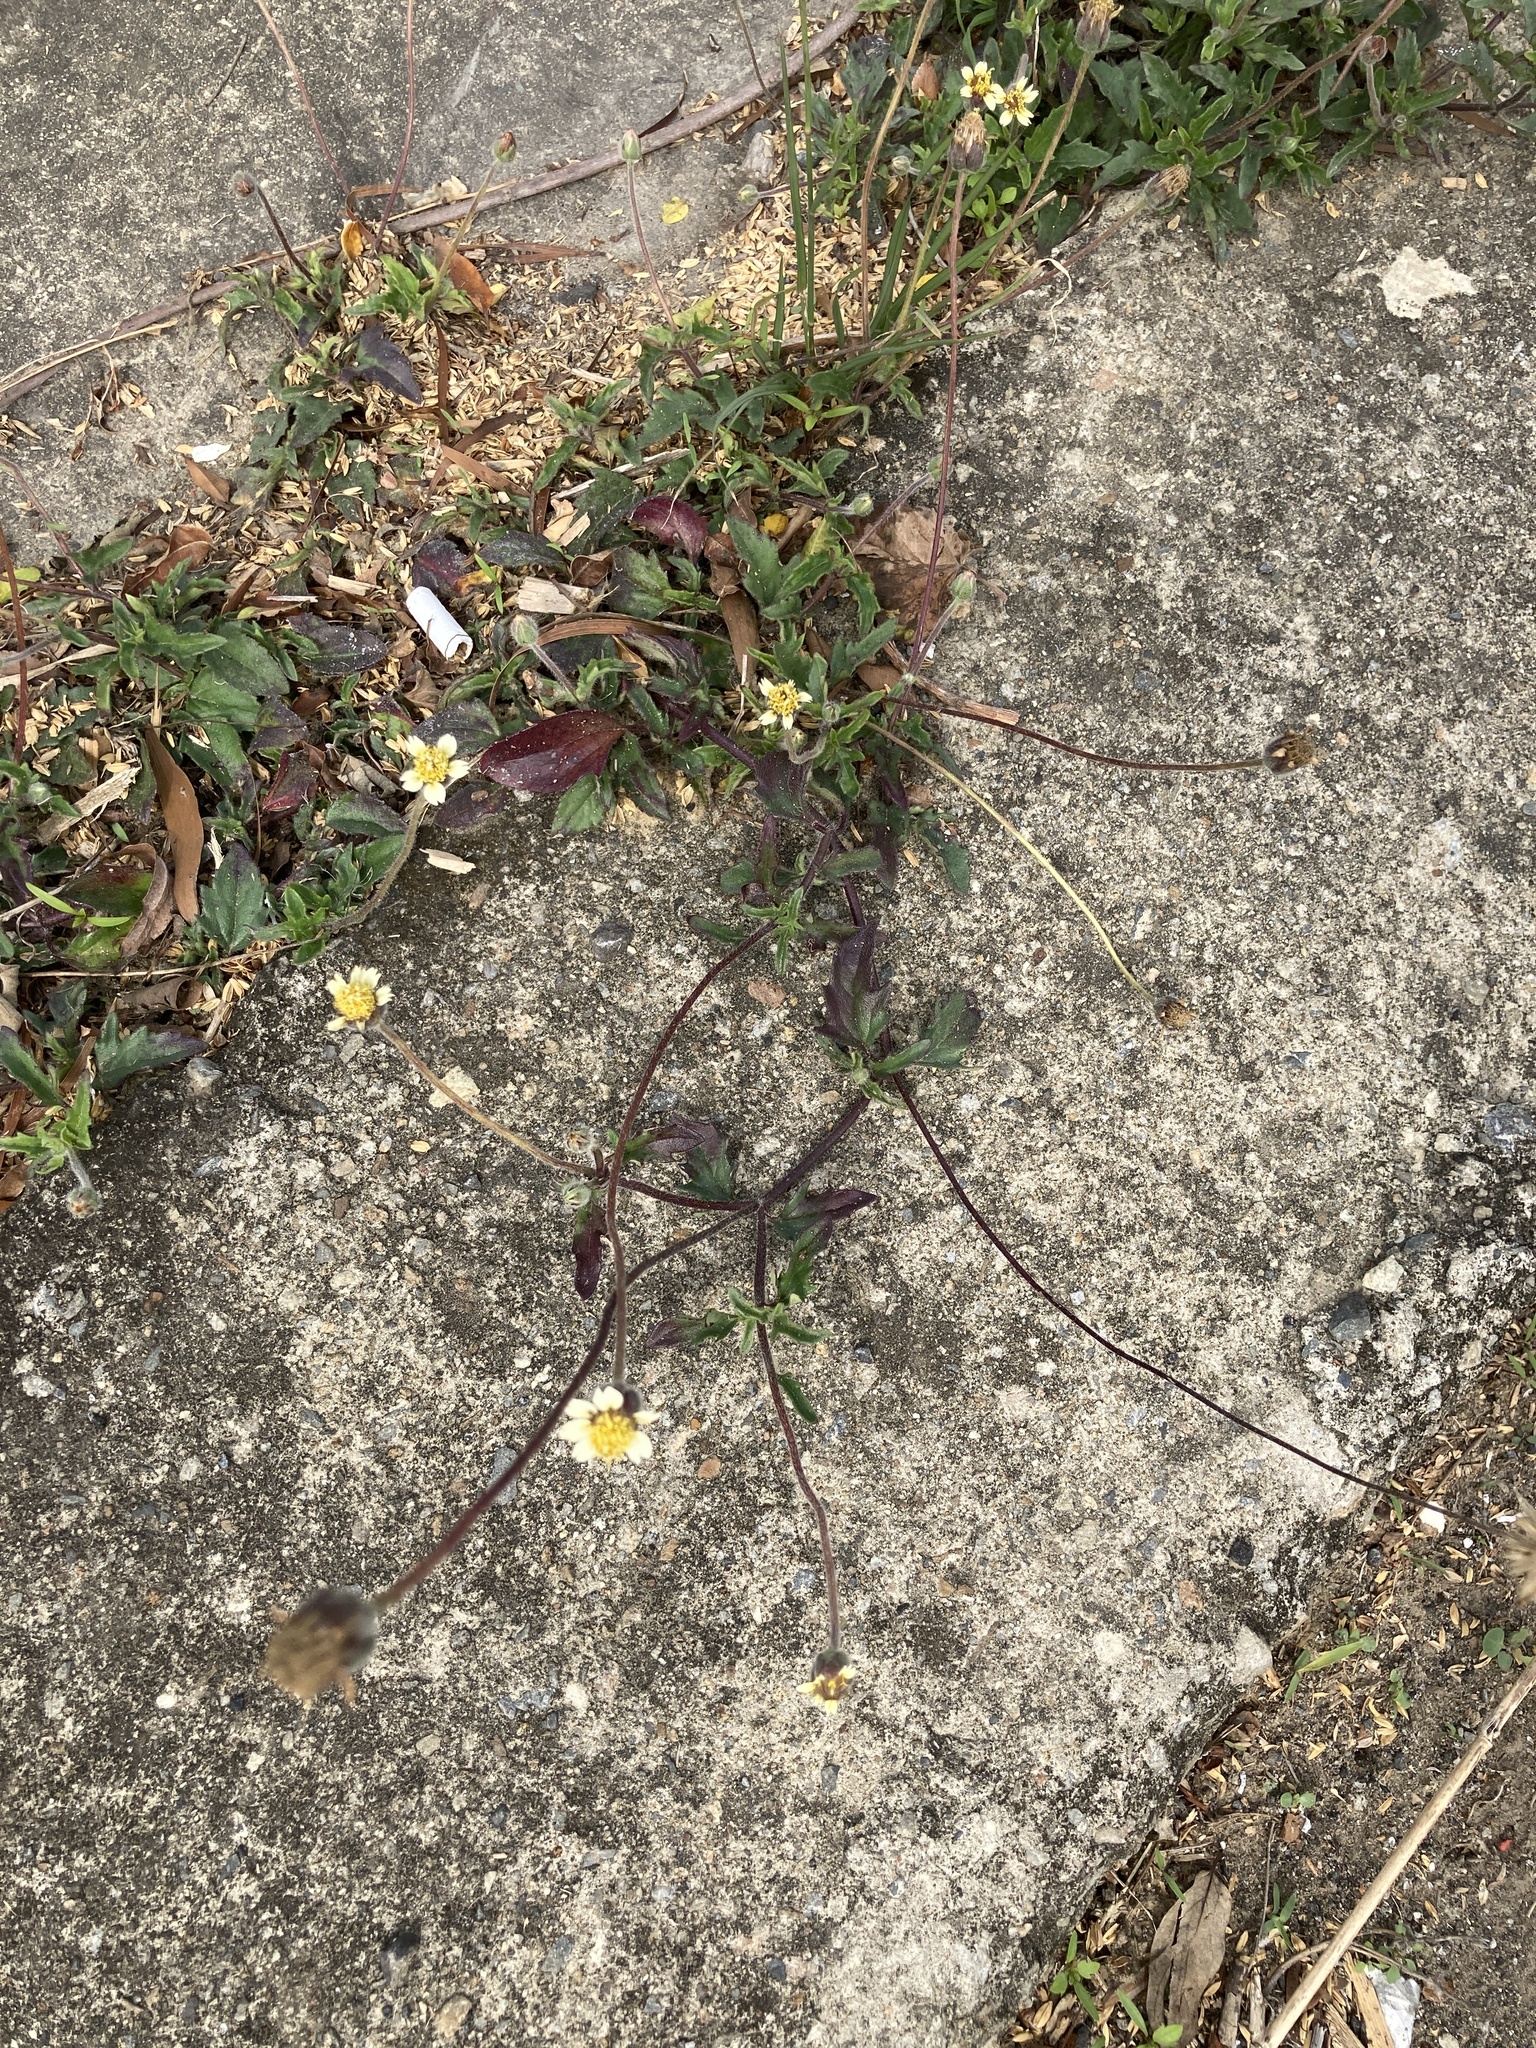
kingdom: Plantae
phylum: Tracheophyta
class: Magnoliopsida
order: Asterales
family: Asteraceae
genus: Tridax
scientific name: Tridax procumbens
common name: Coatbuttons
